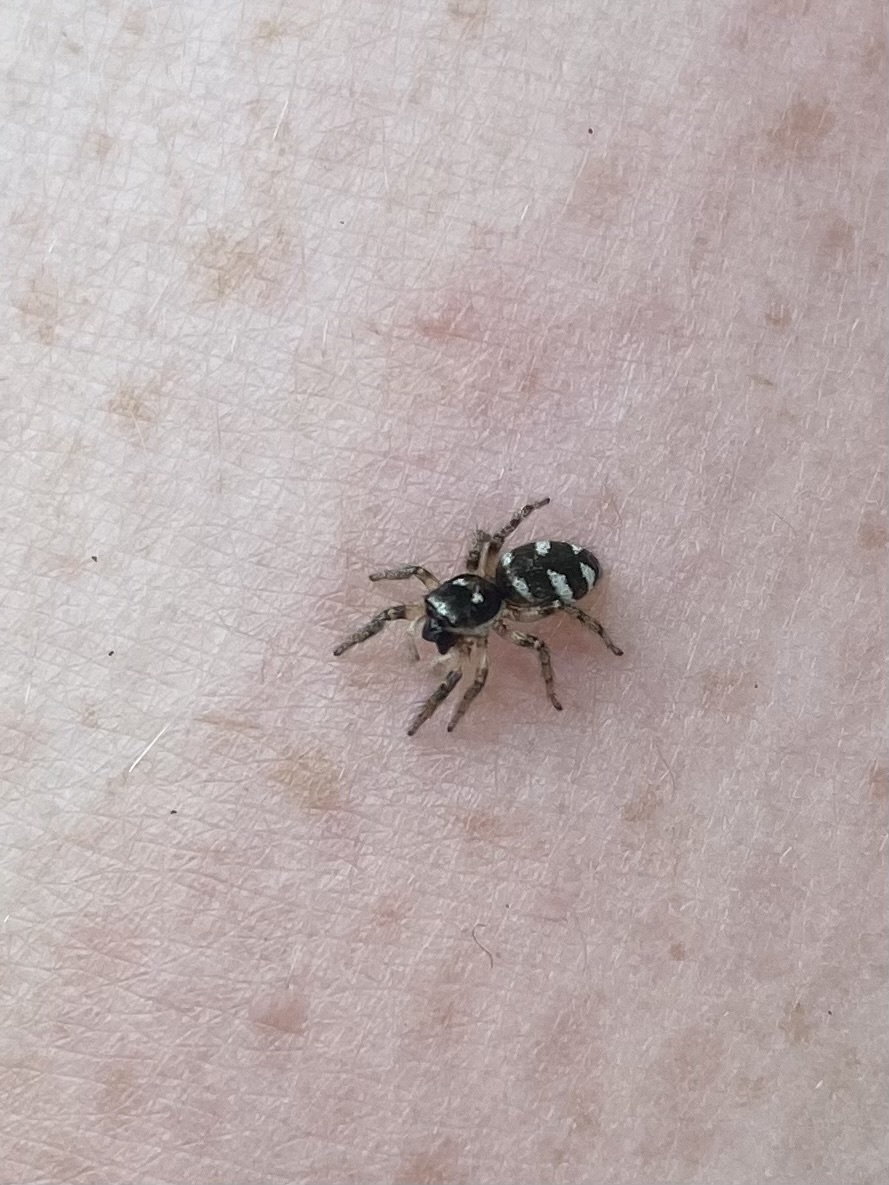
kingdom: Animalia
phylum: Arthropoda
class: Arachnida
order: Araneae
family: Salticidae
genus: Salticus
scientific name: Salticus scenicus
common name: Zebra jumper
